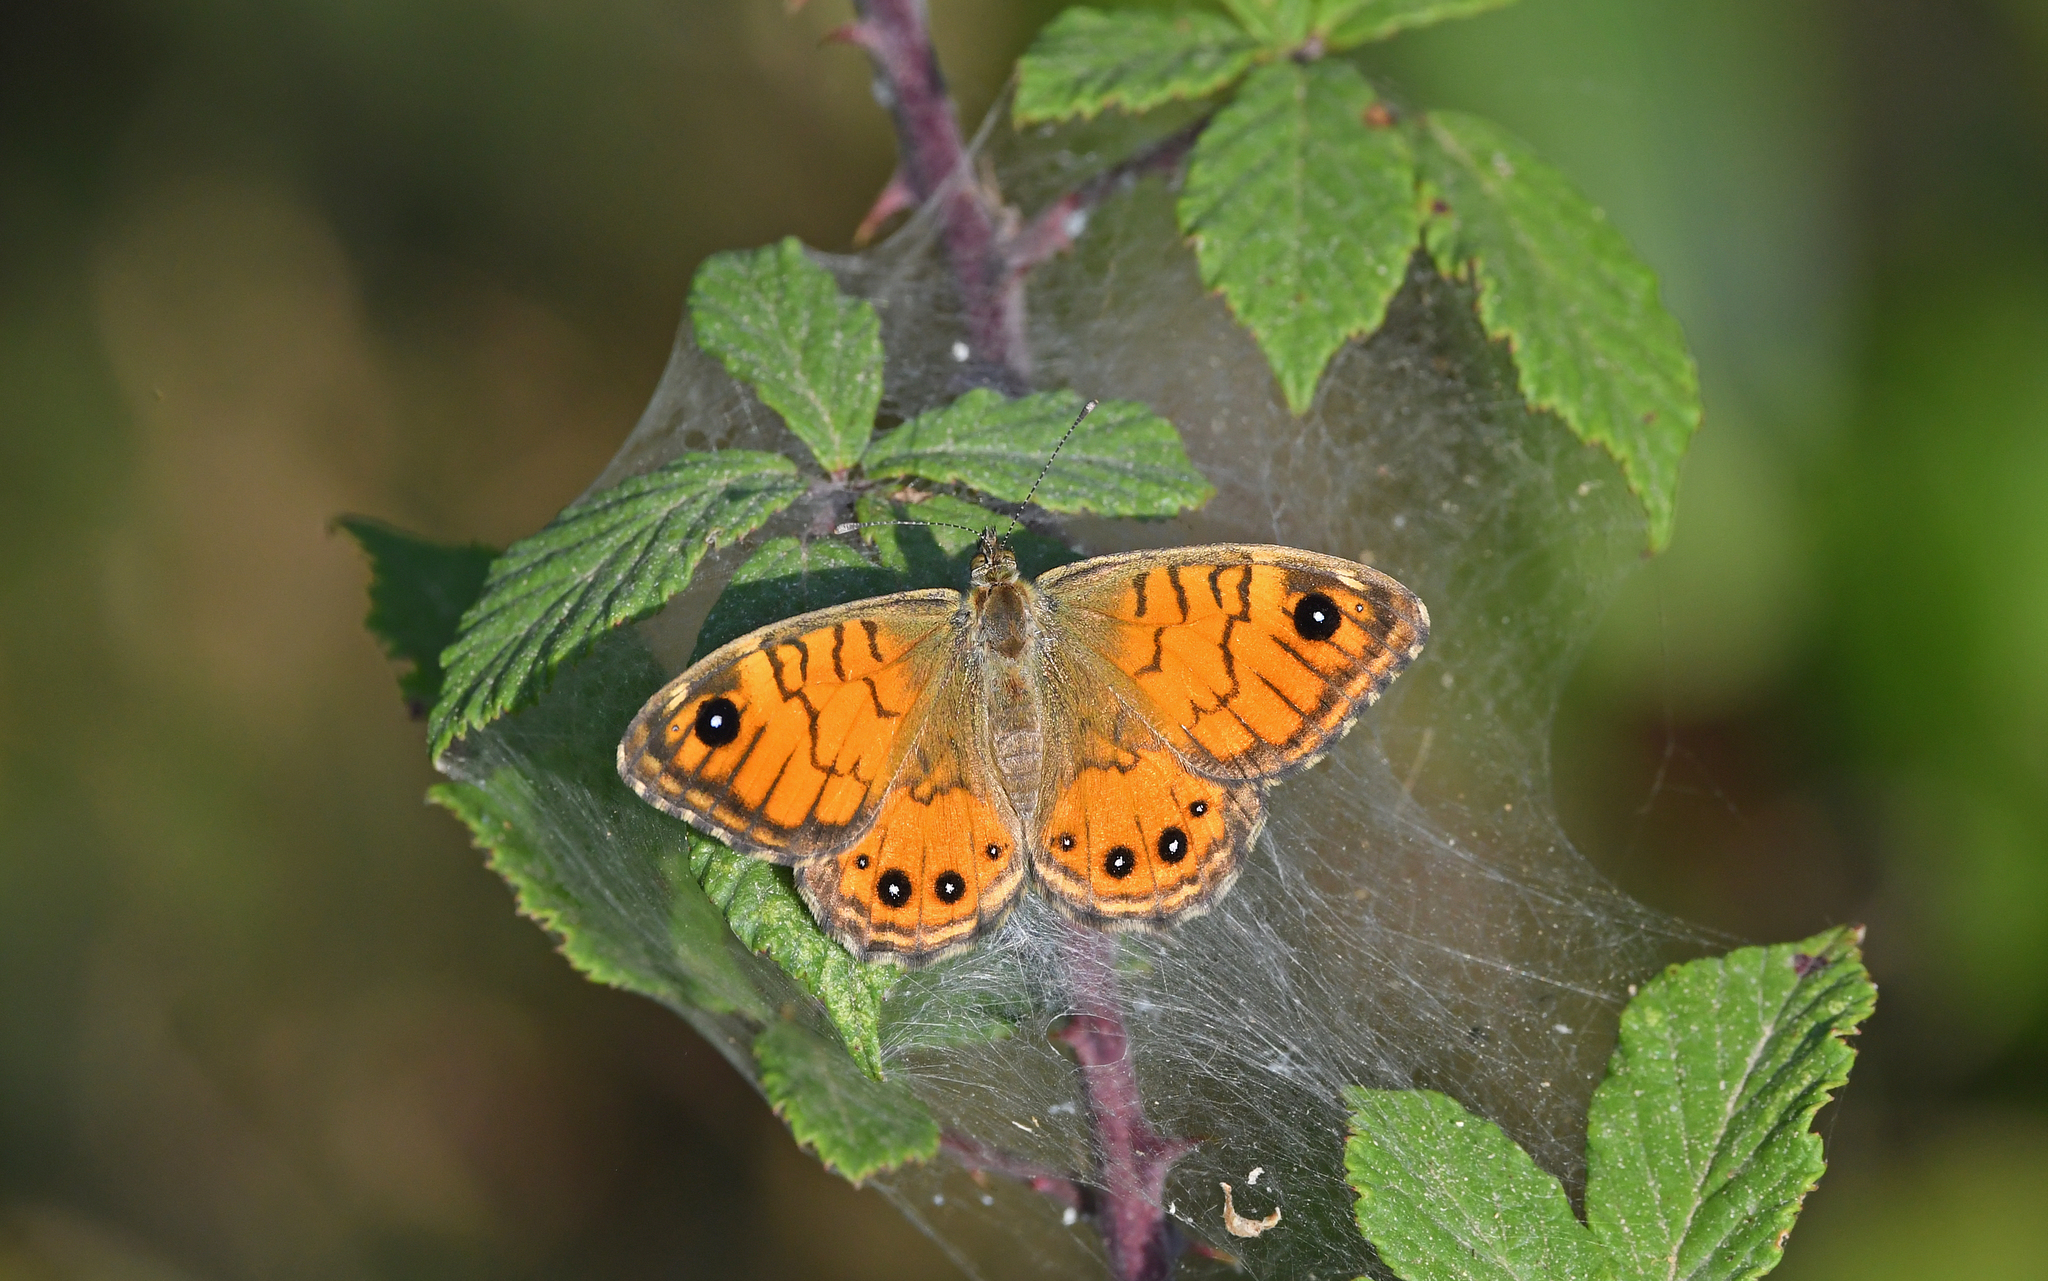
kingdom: Animalia
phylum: Arthropoda
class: Insecta
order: Lepidoptera
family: Nymphalidae
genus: Pararge
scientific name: Pararge Lasiommata paramegaera
